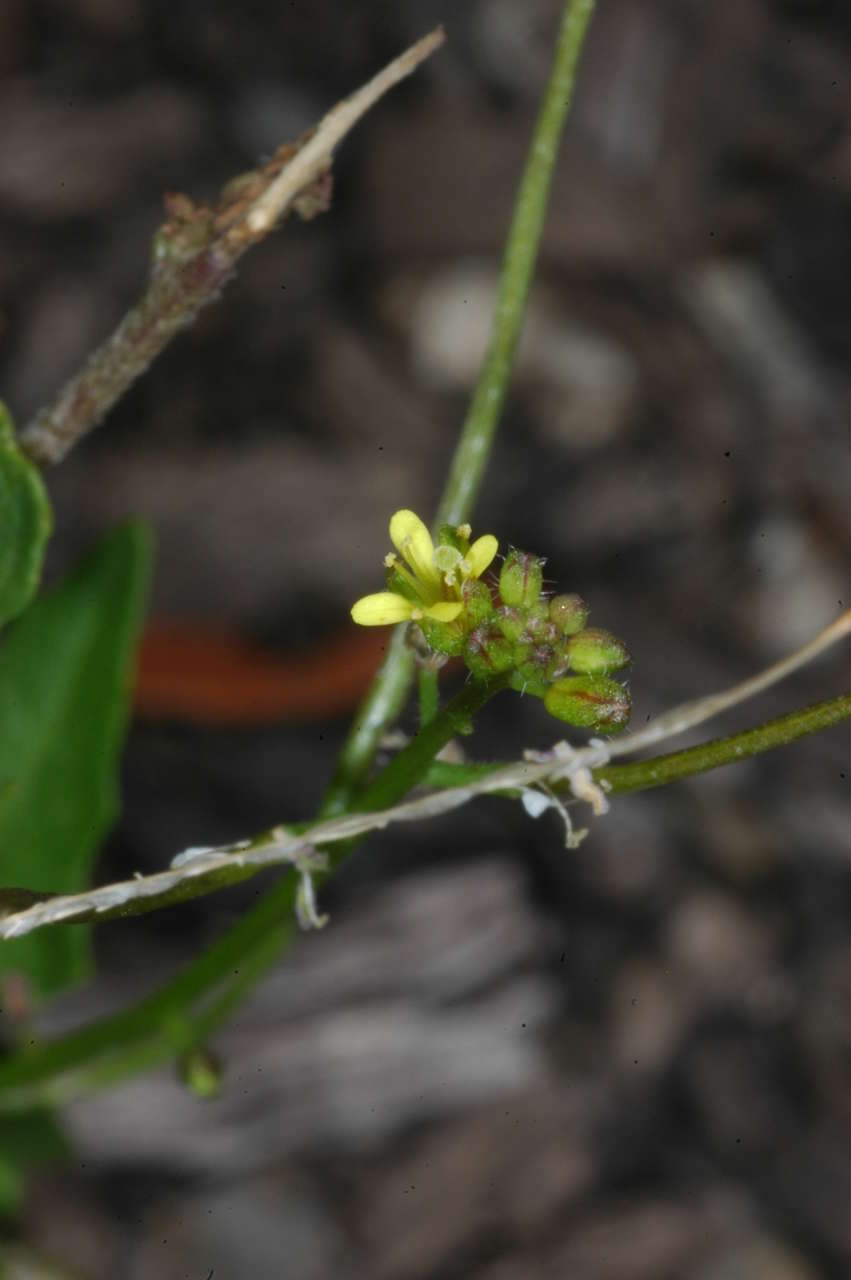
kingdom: Plantae
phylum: Tracheophyta
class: Magnoliopsida
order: Brassicales
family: Brassicaceae
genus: Sisymbrium
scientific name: Sisymbrium erysimoides
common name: French rocket
